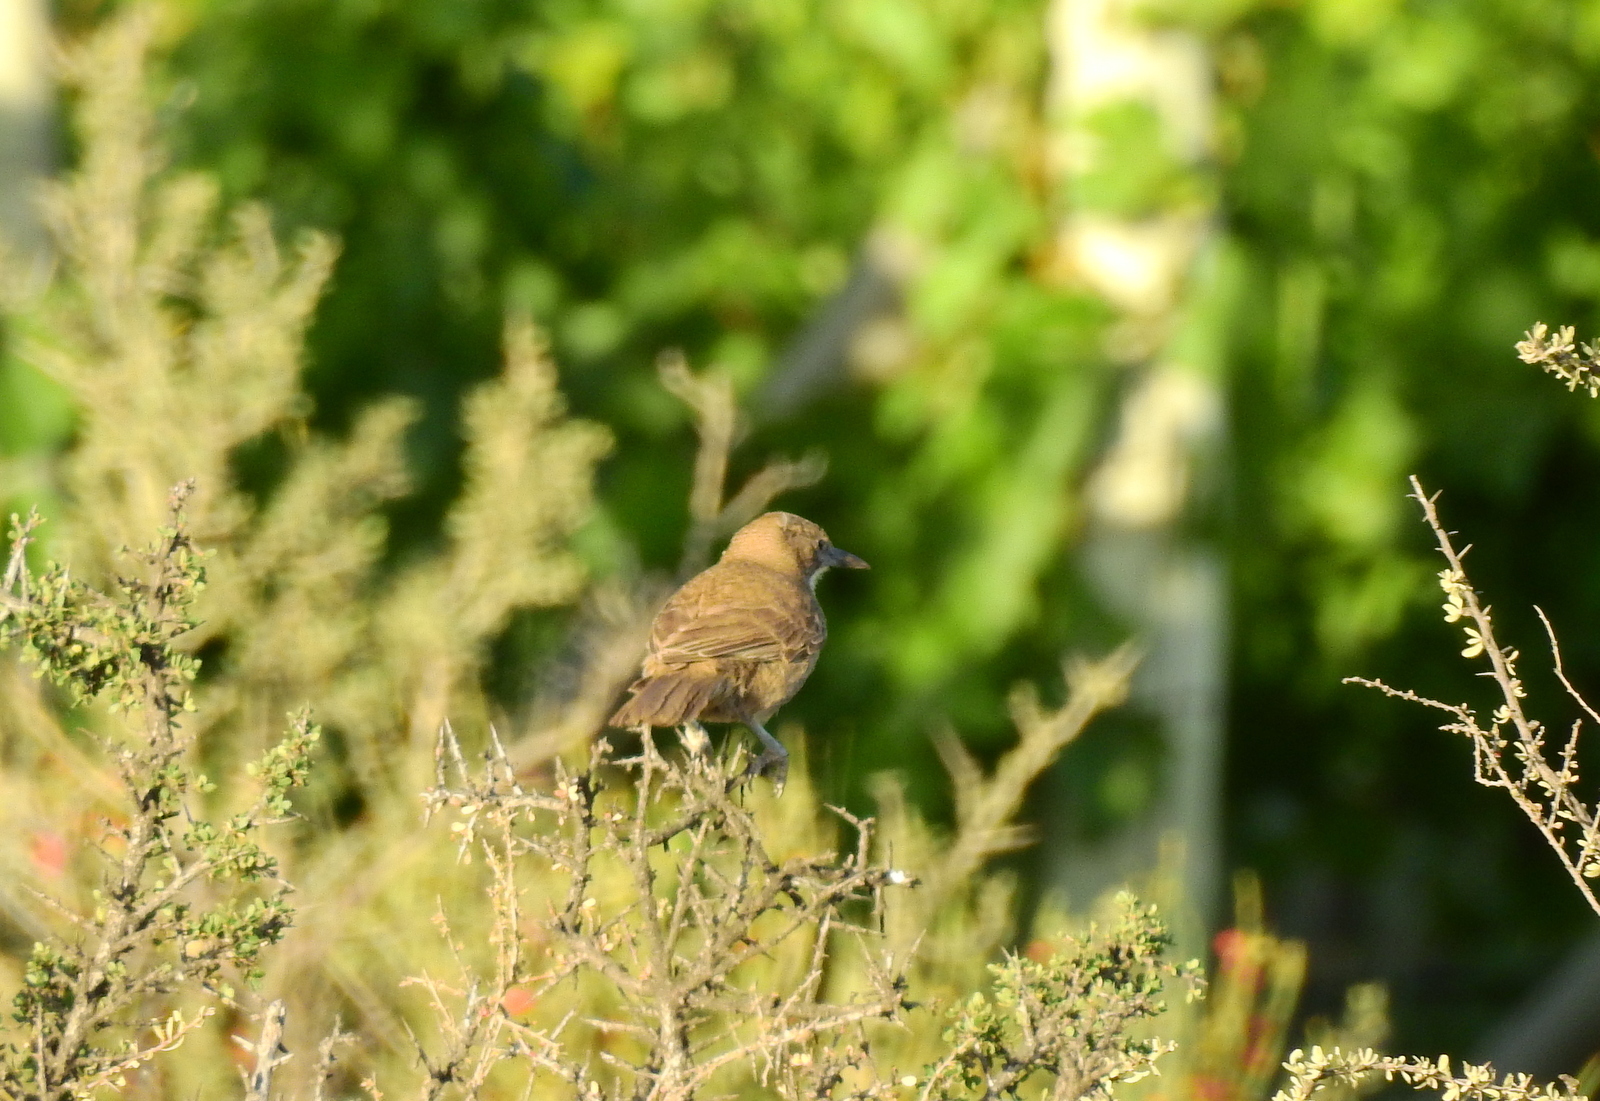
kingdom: Animalia
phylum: Chordata
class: Aves
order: Passeriformes
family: Furnariidae
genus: Pseudoseisura
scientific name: Pseudoseisura gutturalis
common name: White-throated cacholote
